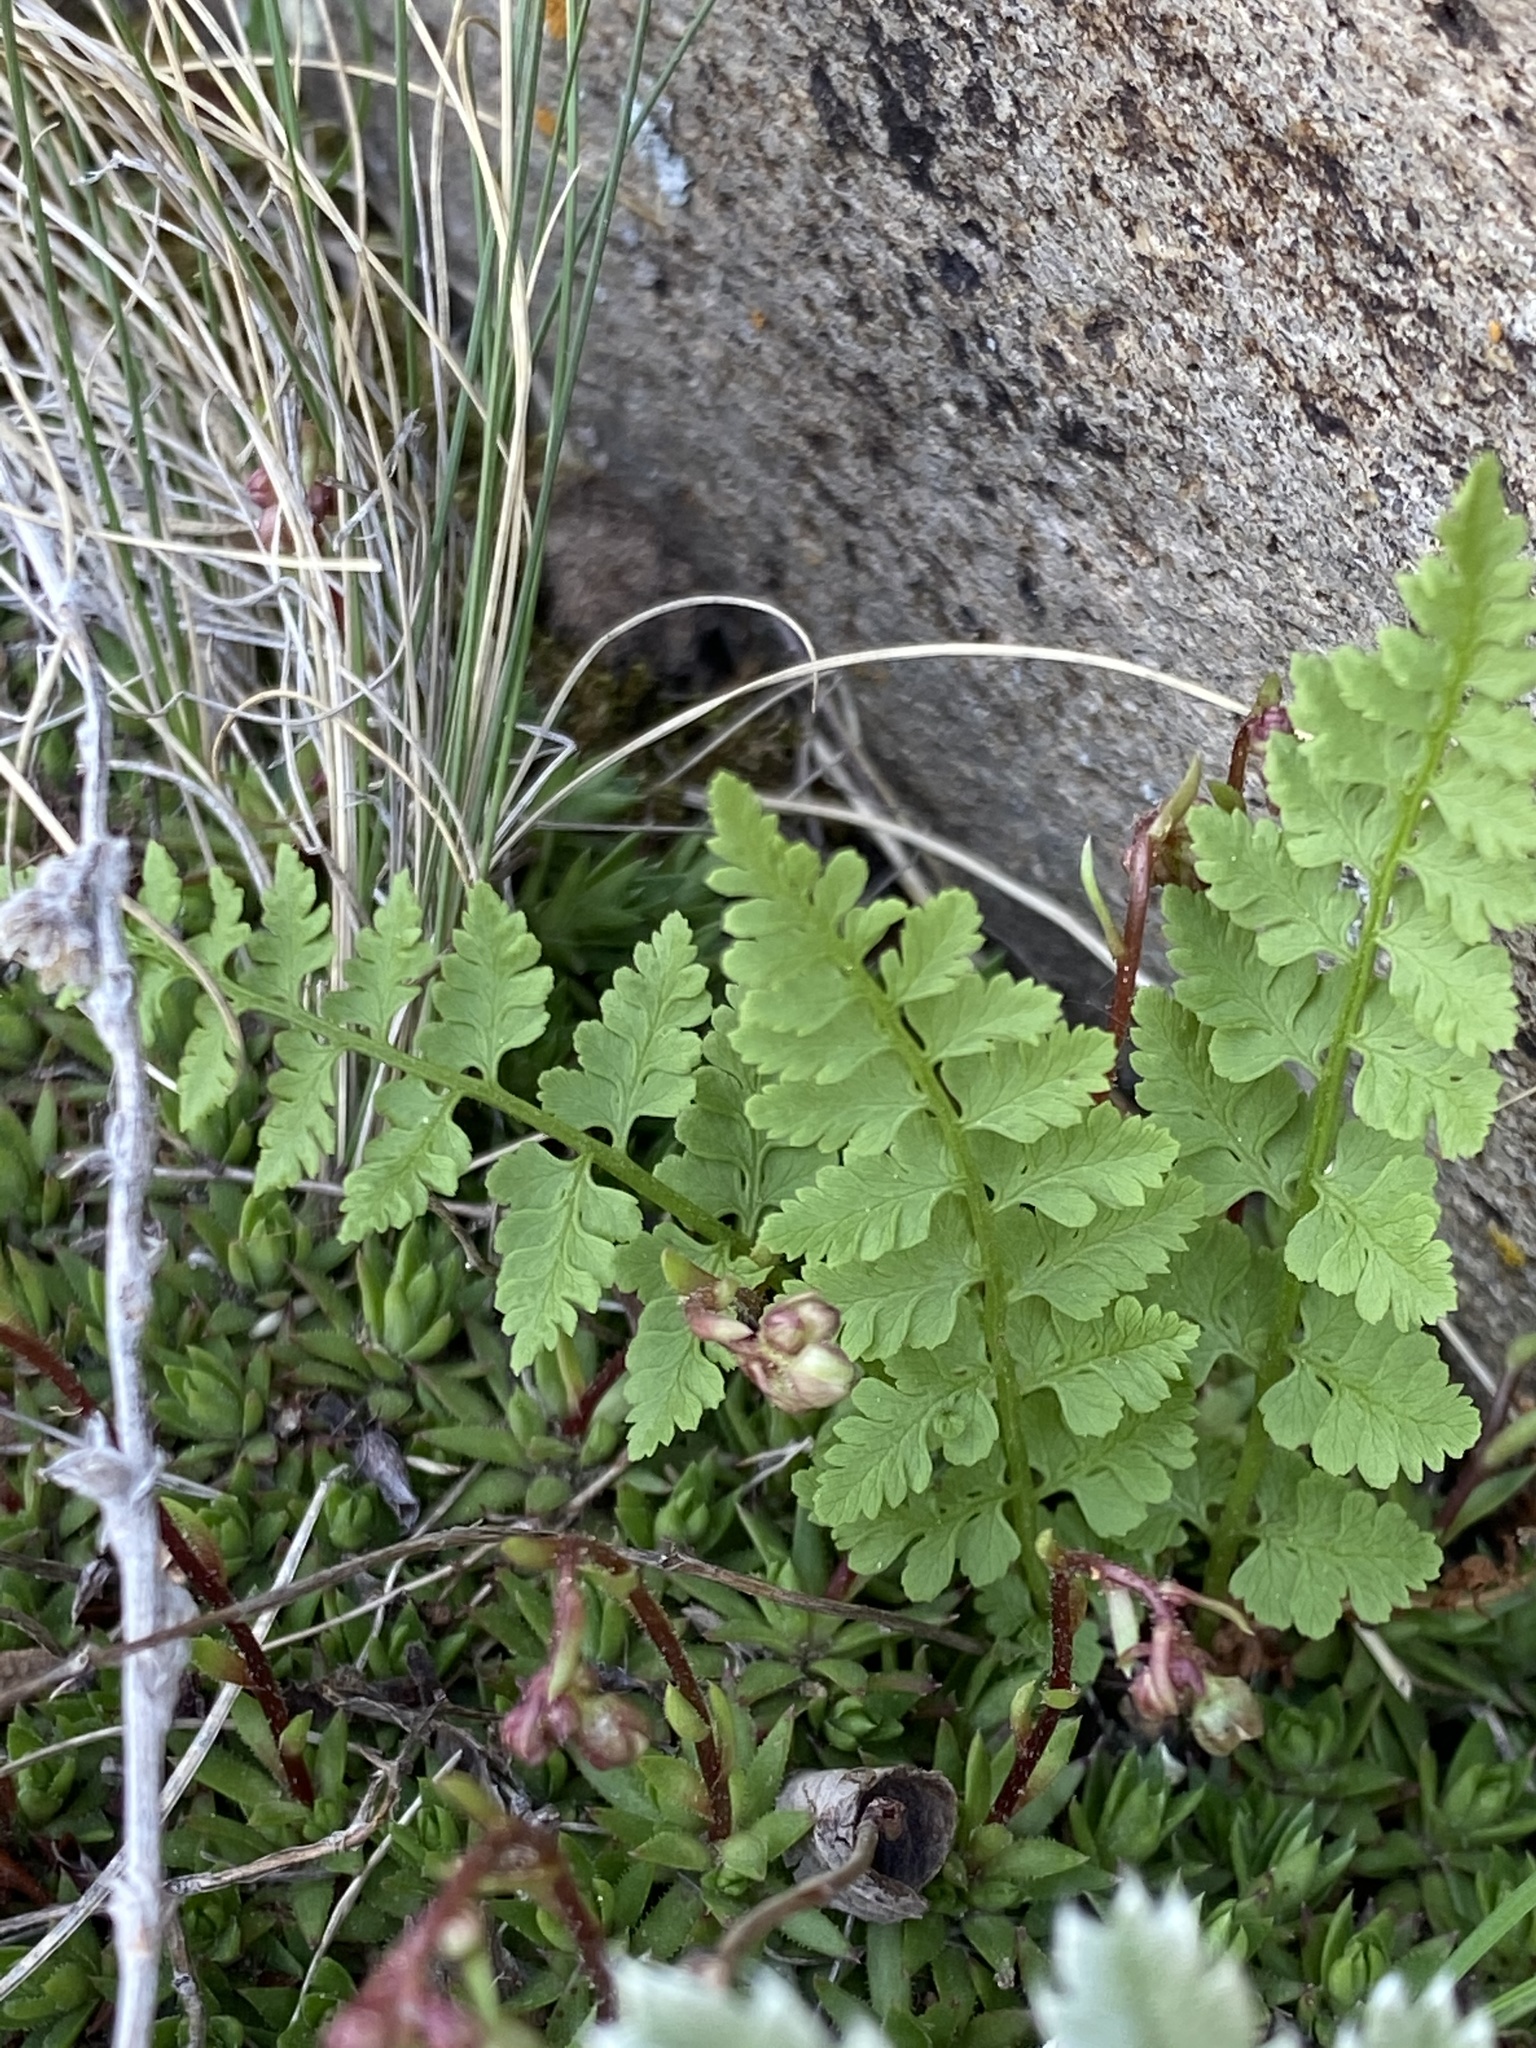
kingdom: Plantae
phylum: Tracheophyta
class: Polypodiopsida
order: Polypodiales
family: Cystopteridaceae
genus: Cystopteris
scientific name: Cystopteris fragilis
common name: Brittle bladder fern
